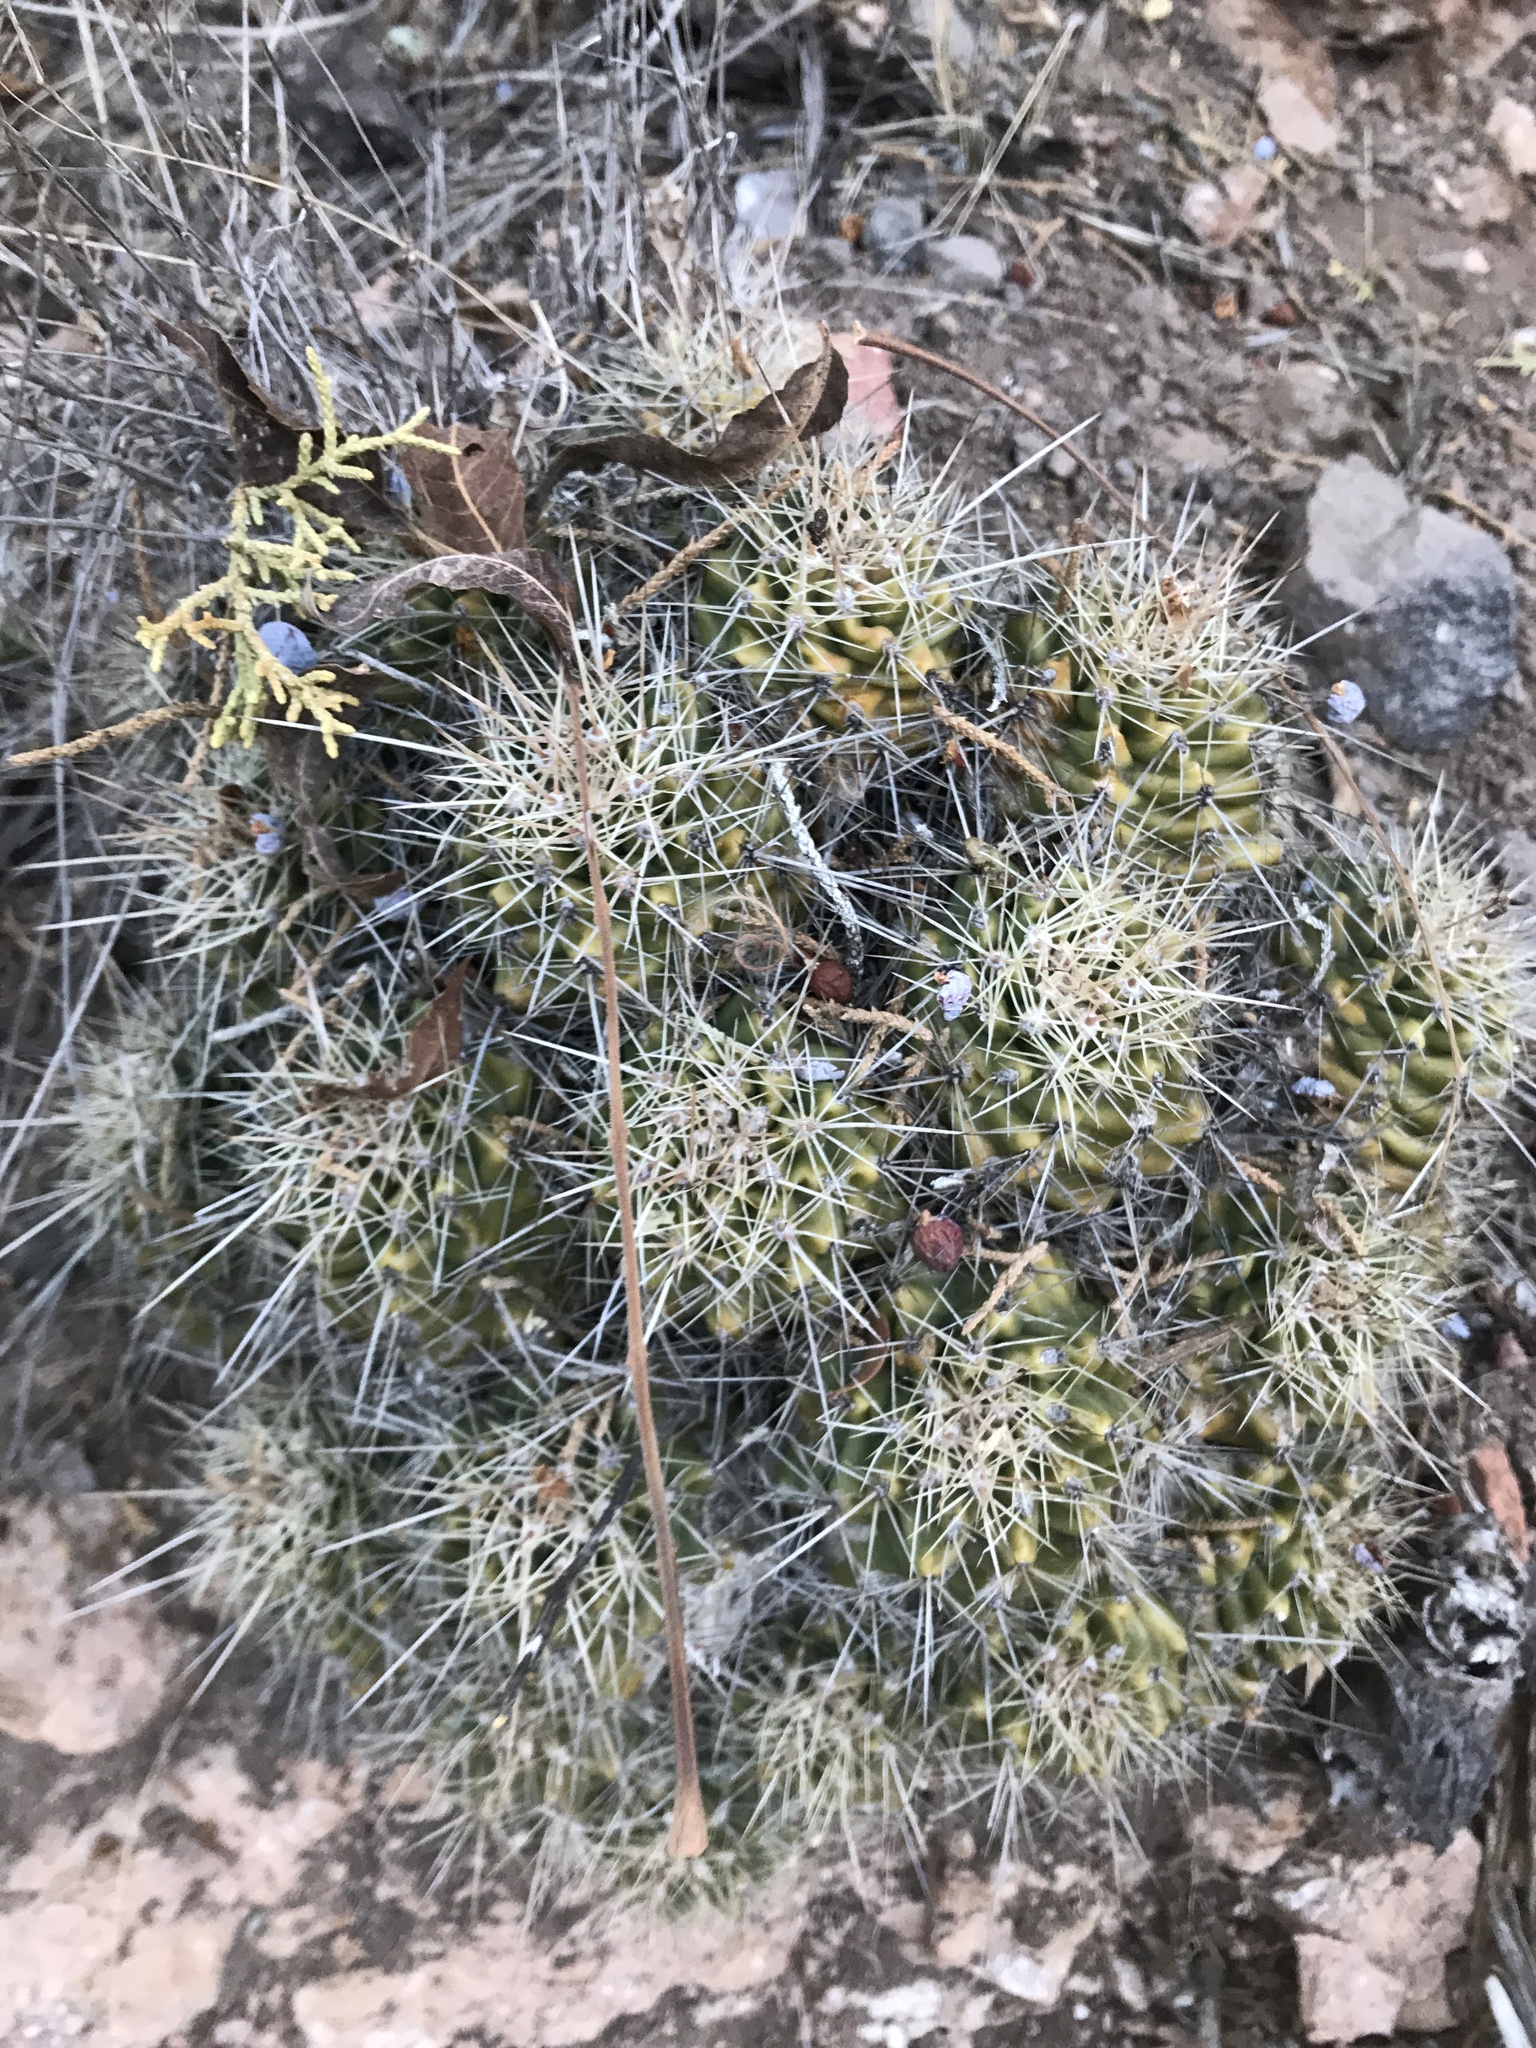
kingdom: Plantae
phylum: Tracheophyta
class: Magnoliopsida
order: Caryophyllales
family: Cactaceae
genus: Echinocereus
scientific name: Echinocereus coccineus
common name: Scarlet hedgehog cactus
